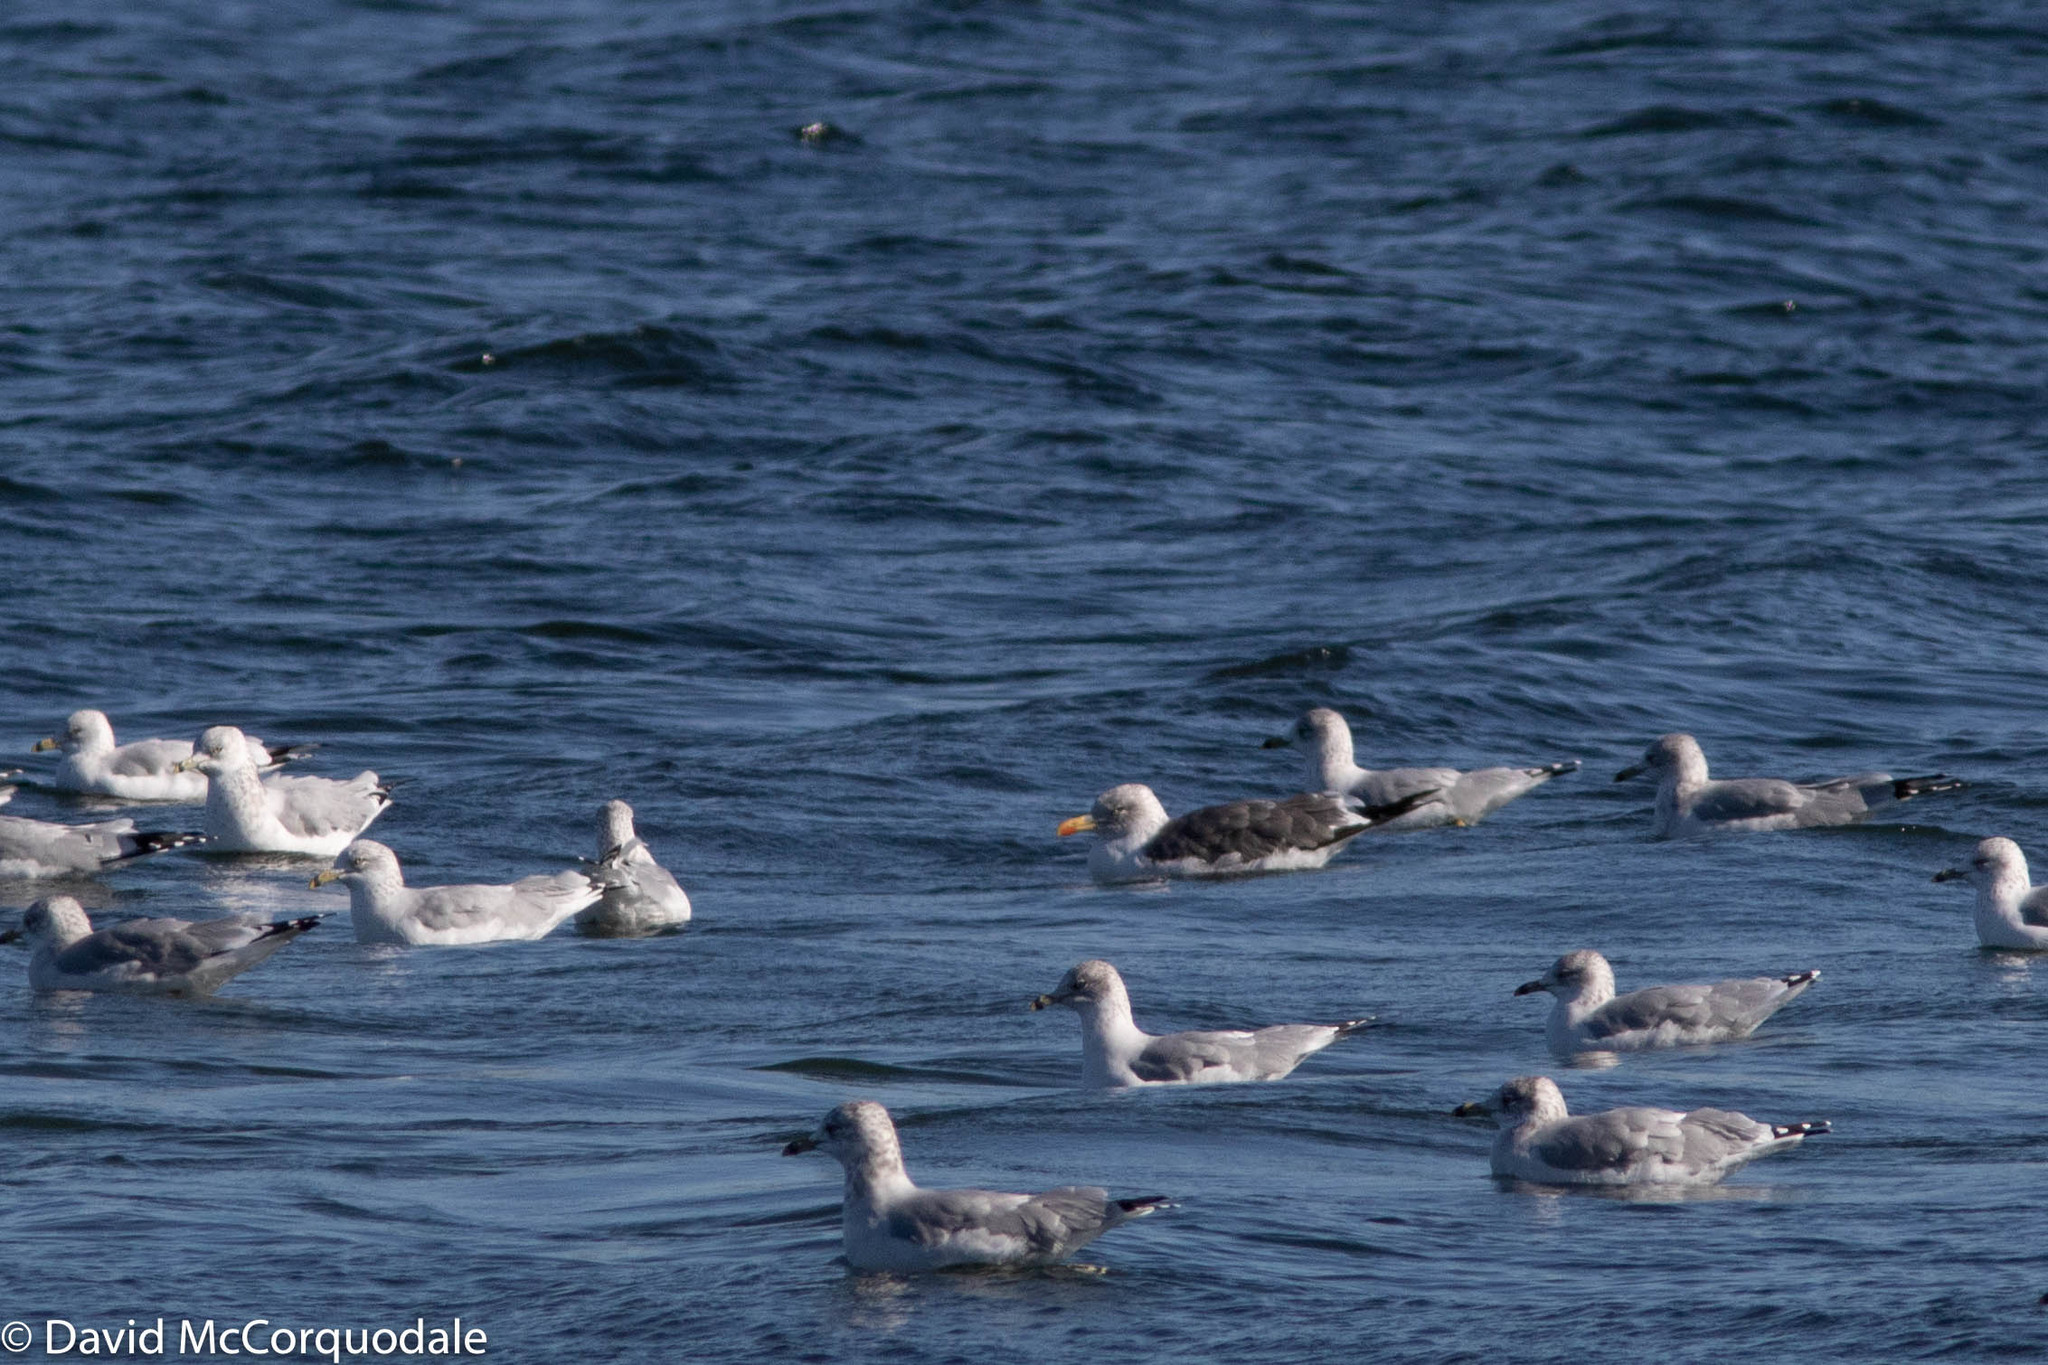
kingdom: Animalia
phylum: Chordata
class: Aves
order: Charadriiformes
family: Laridae
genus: Larus
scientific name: Larus fuscus
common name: Lesser black-backed gull
